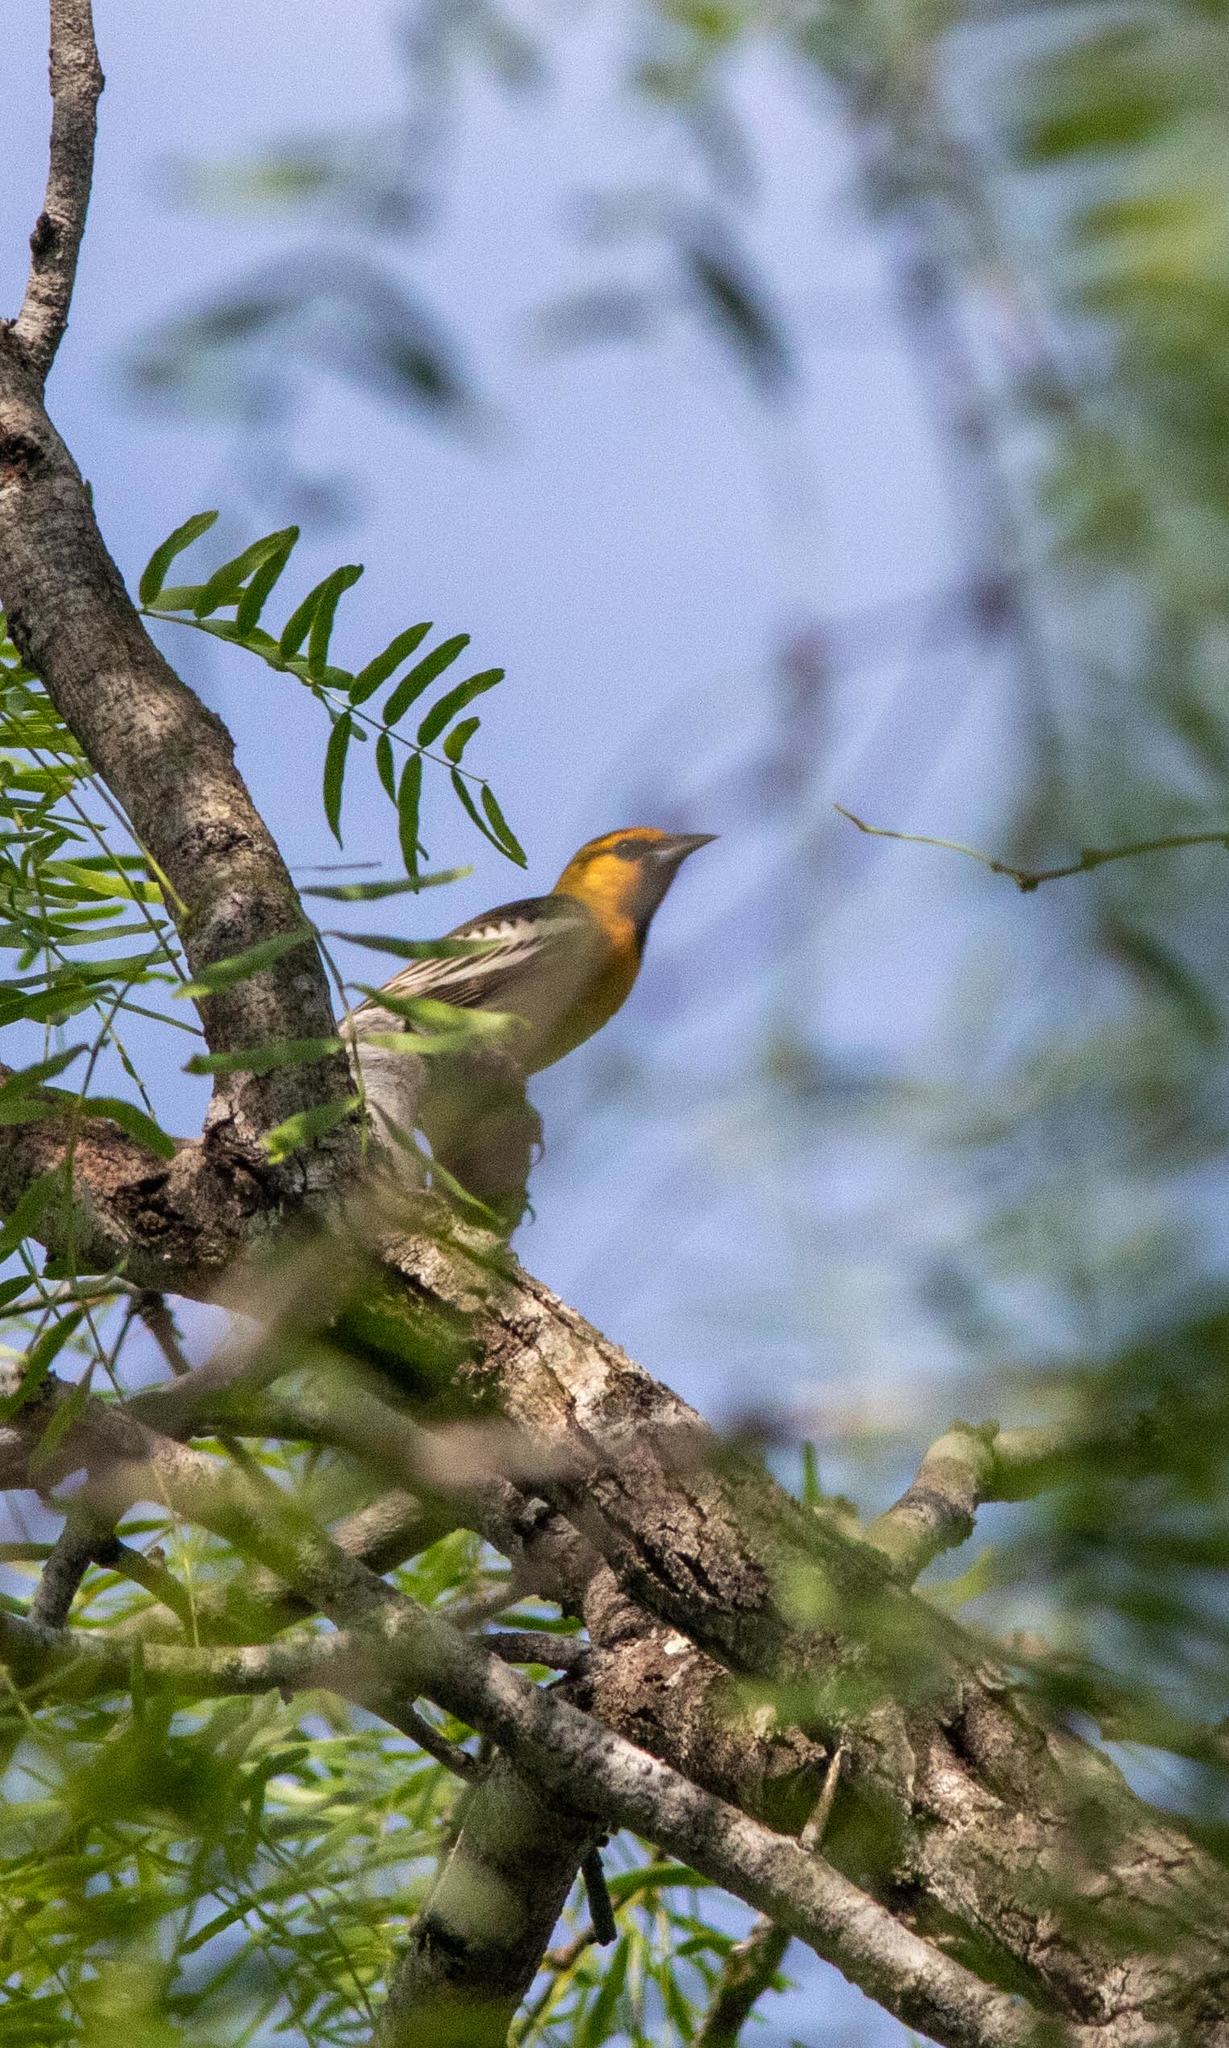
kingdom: Animalia
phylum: Chordata
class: Aves
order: Passeriformes
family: Icteridae
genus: Icterus
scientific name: Icterus bullockii
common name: Bullock's oriole
